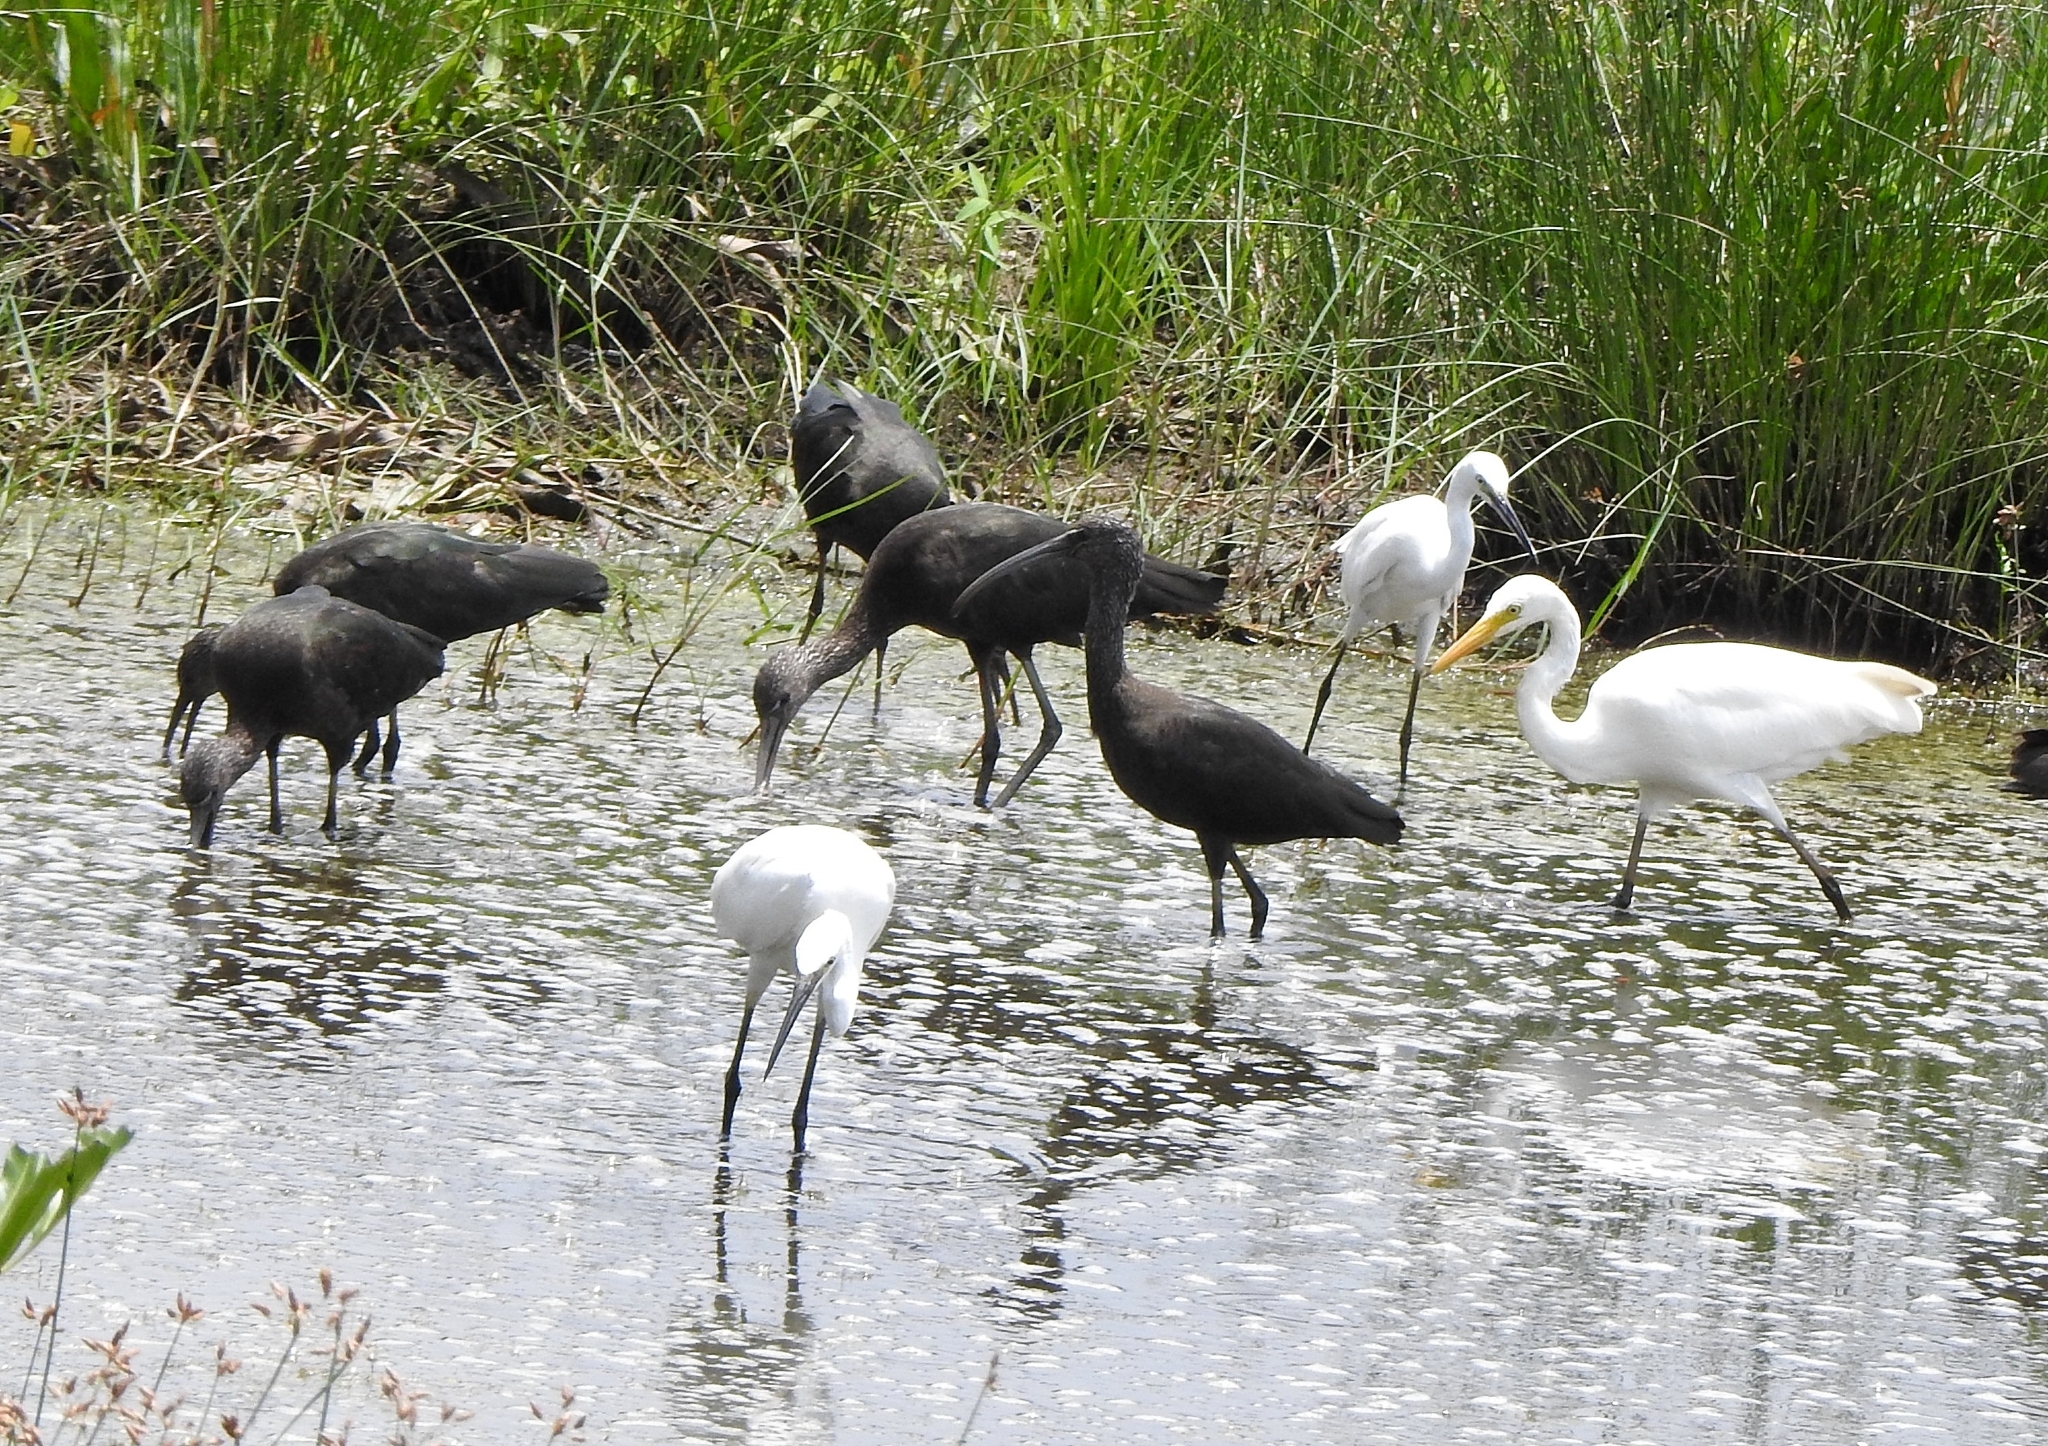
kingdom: Animalia
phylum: Chordata
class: Aves
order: Pelecaniformes
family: Threskiornithidae
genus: Plegadis
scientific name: Plegadis falcinellus
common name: Glossy ibis
